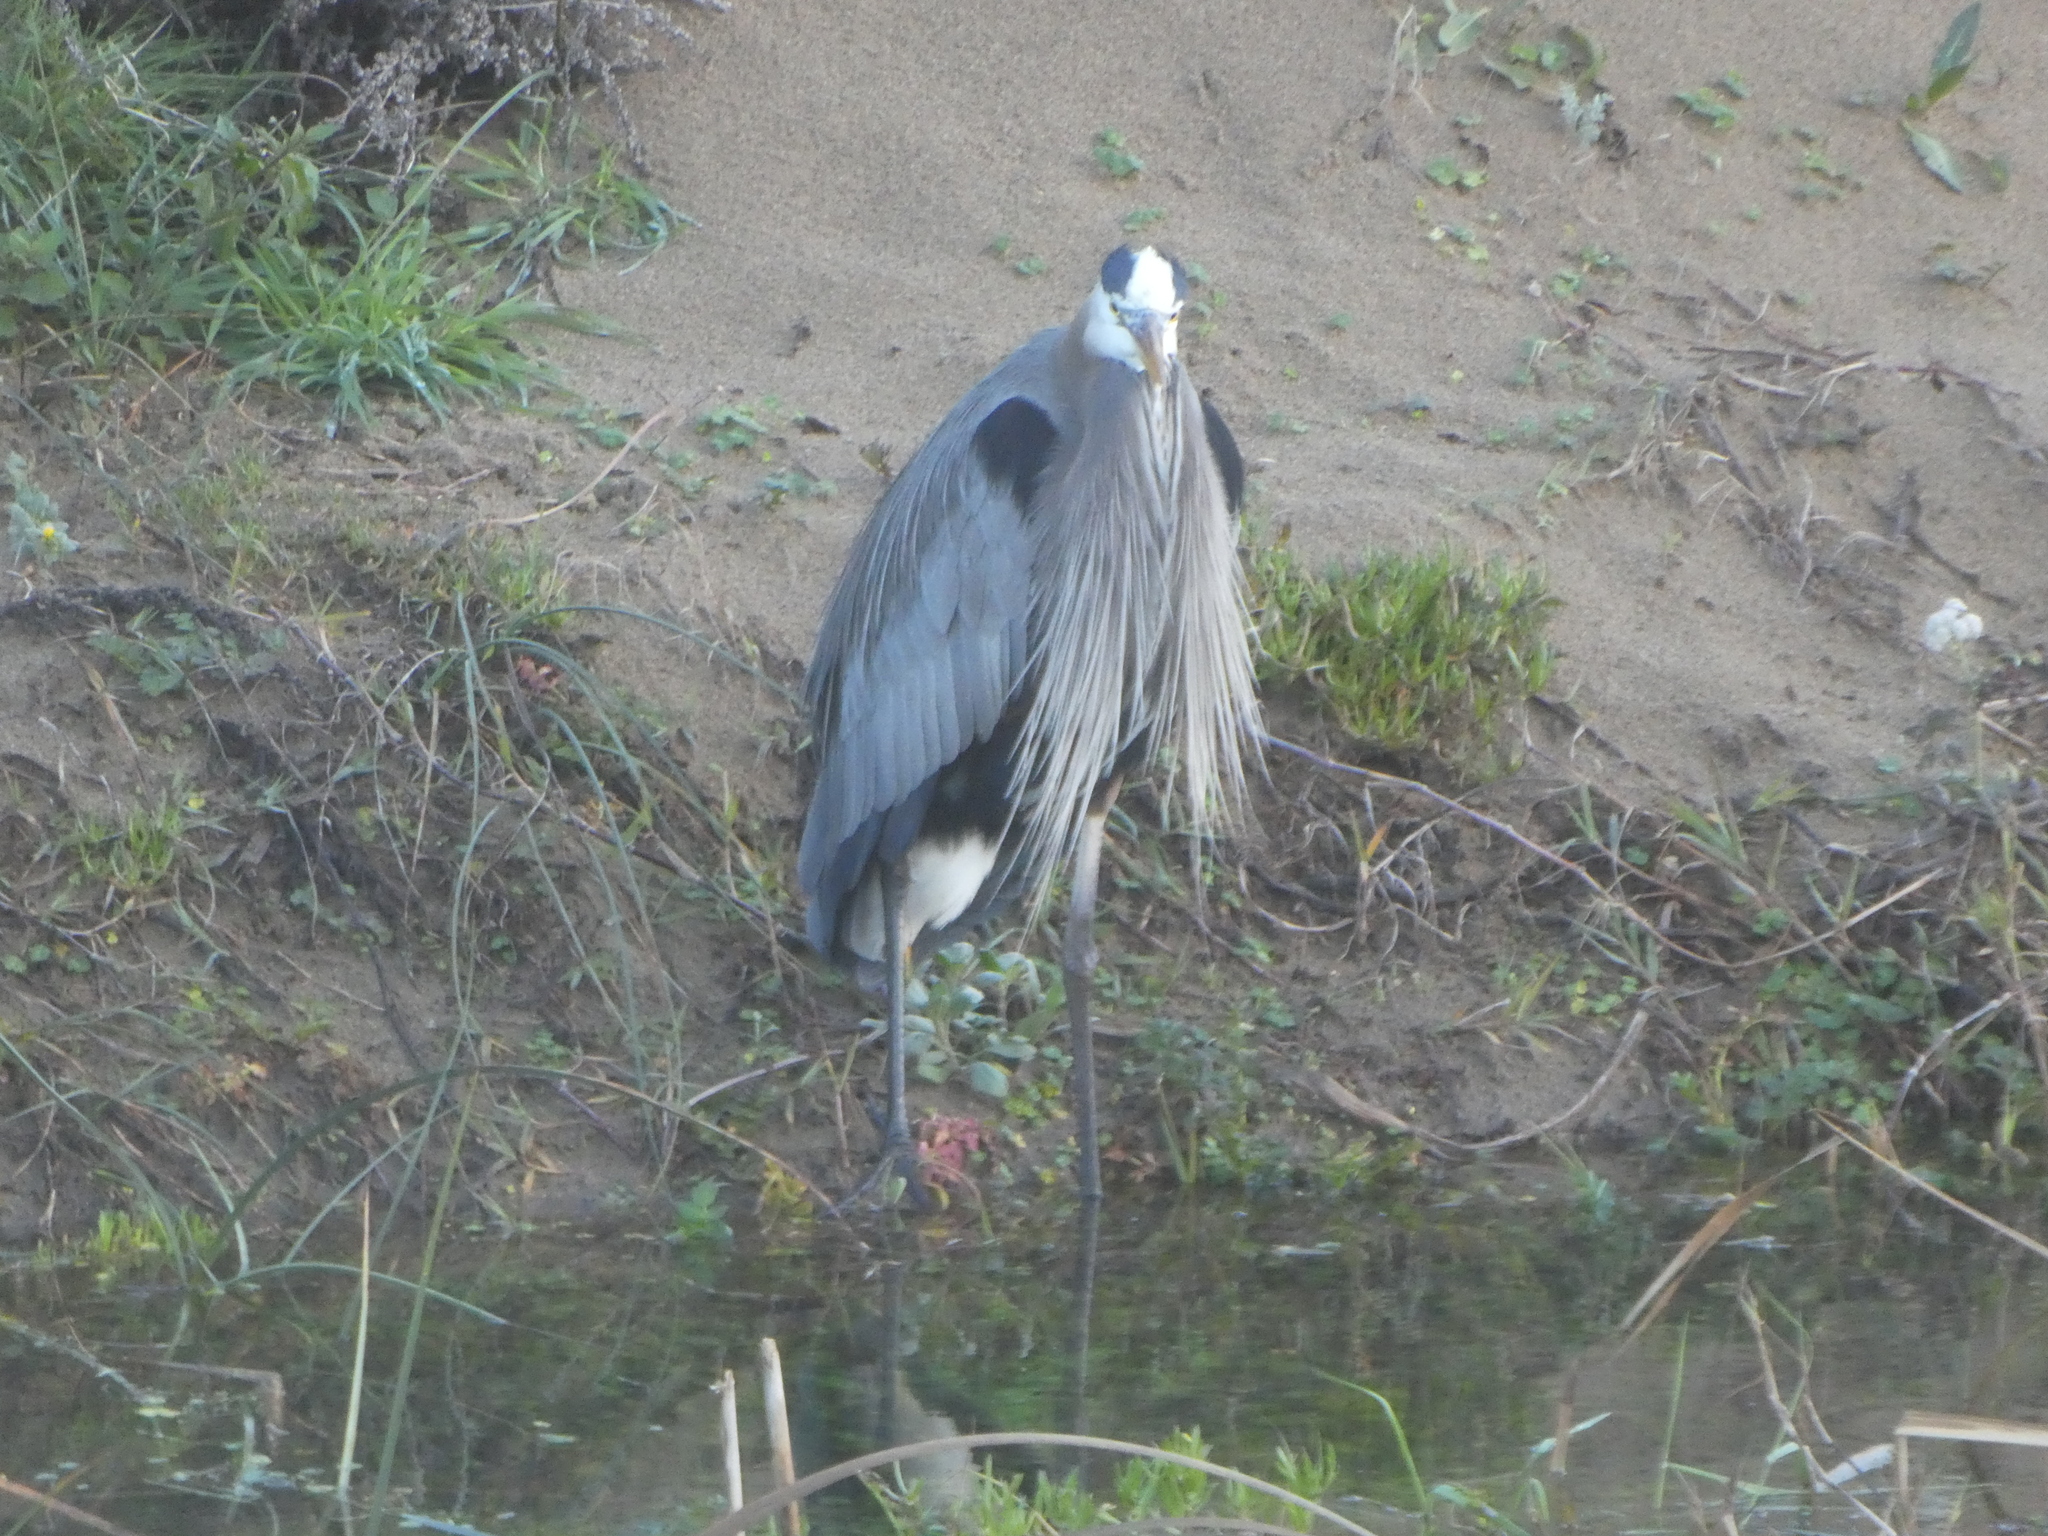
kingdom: Animalia
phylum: Chordata
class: Aves
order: Pelecaniformes
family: Ardeidae
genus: Ardea
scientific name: Ardea herodias
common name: Great blue heron
